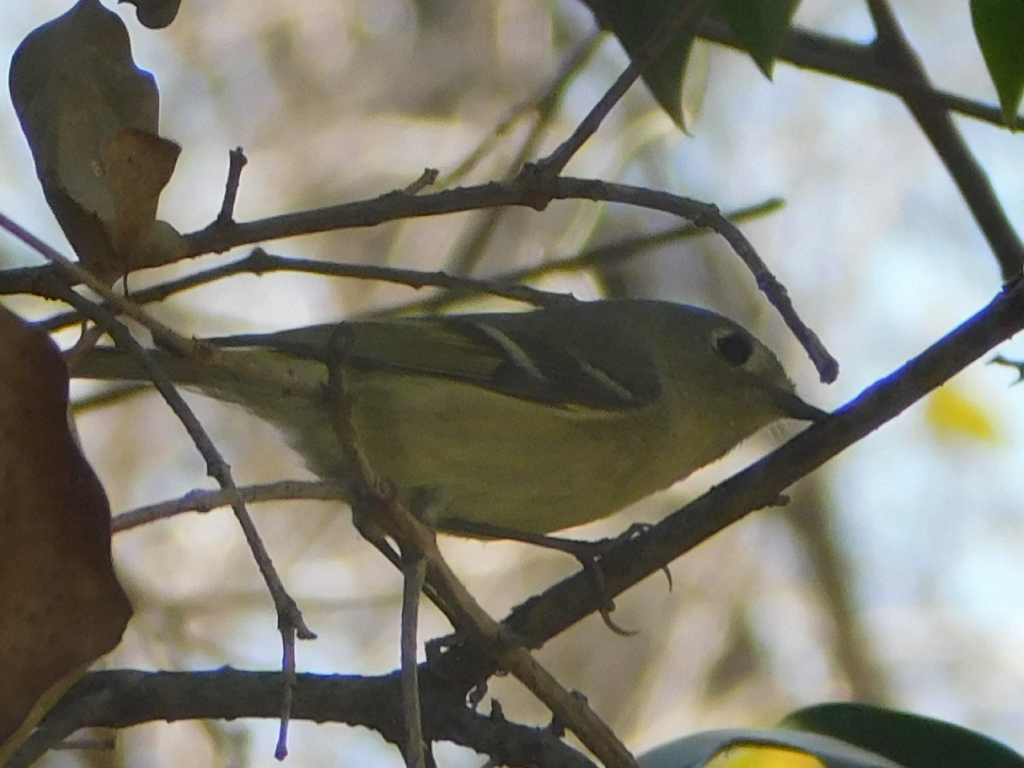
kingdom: Animalia
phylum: Chordata
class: Aves
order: Passeriformes
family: Regulidae
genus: Regulus
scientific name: Regulus calendula
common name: Ruby-crowned kinglet
